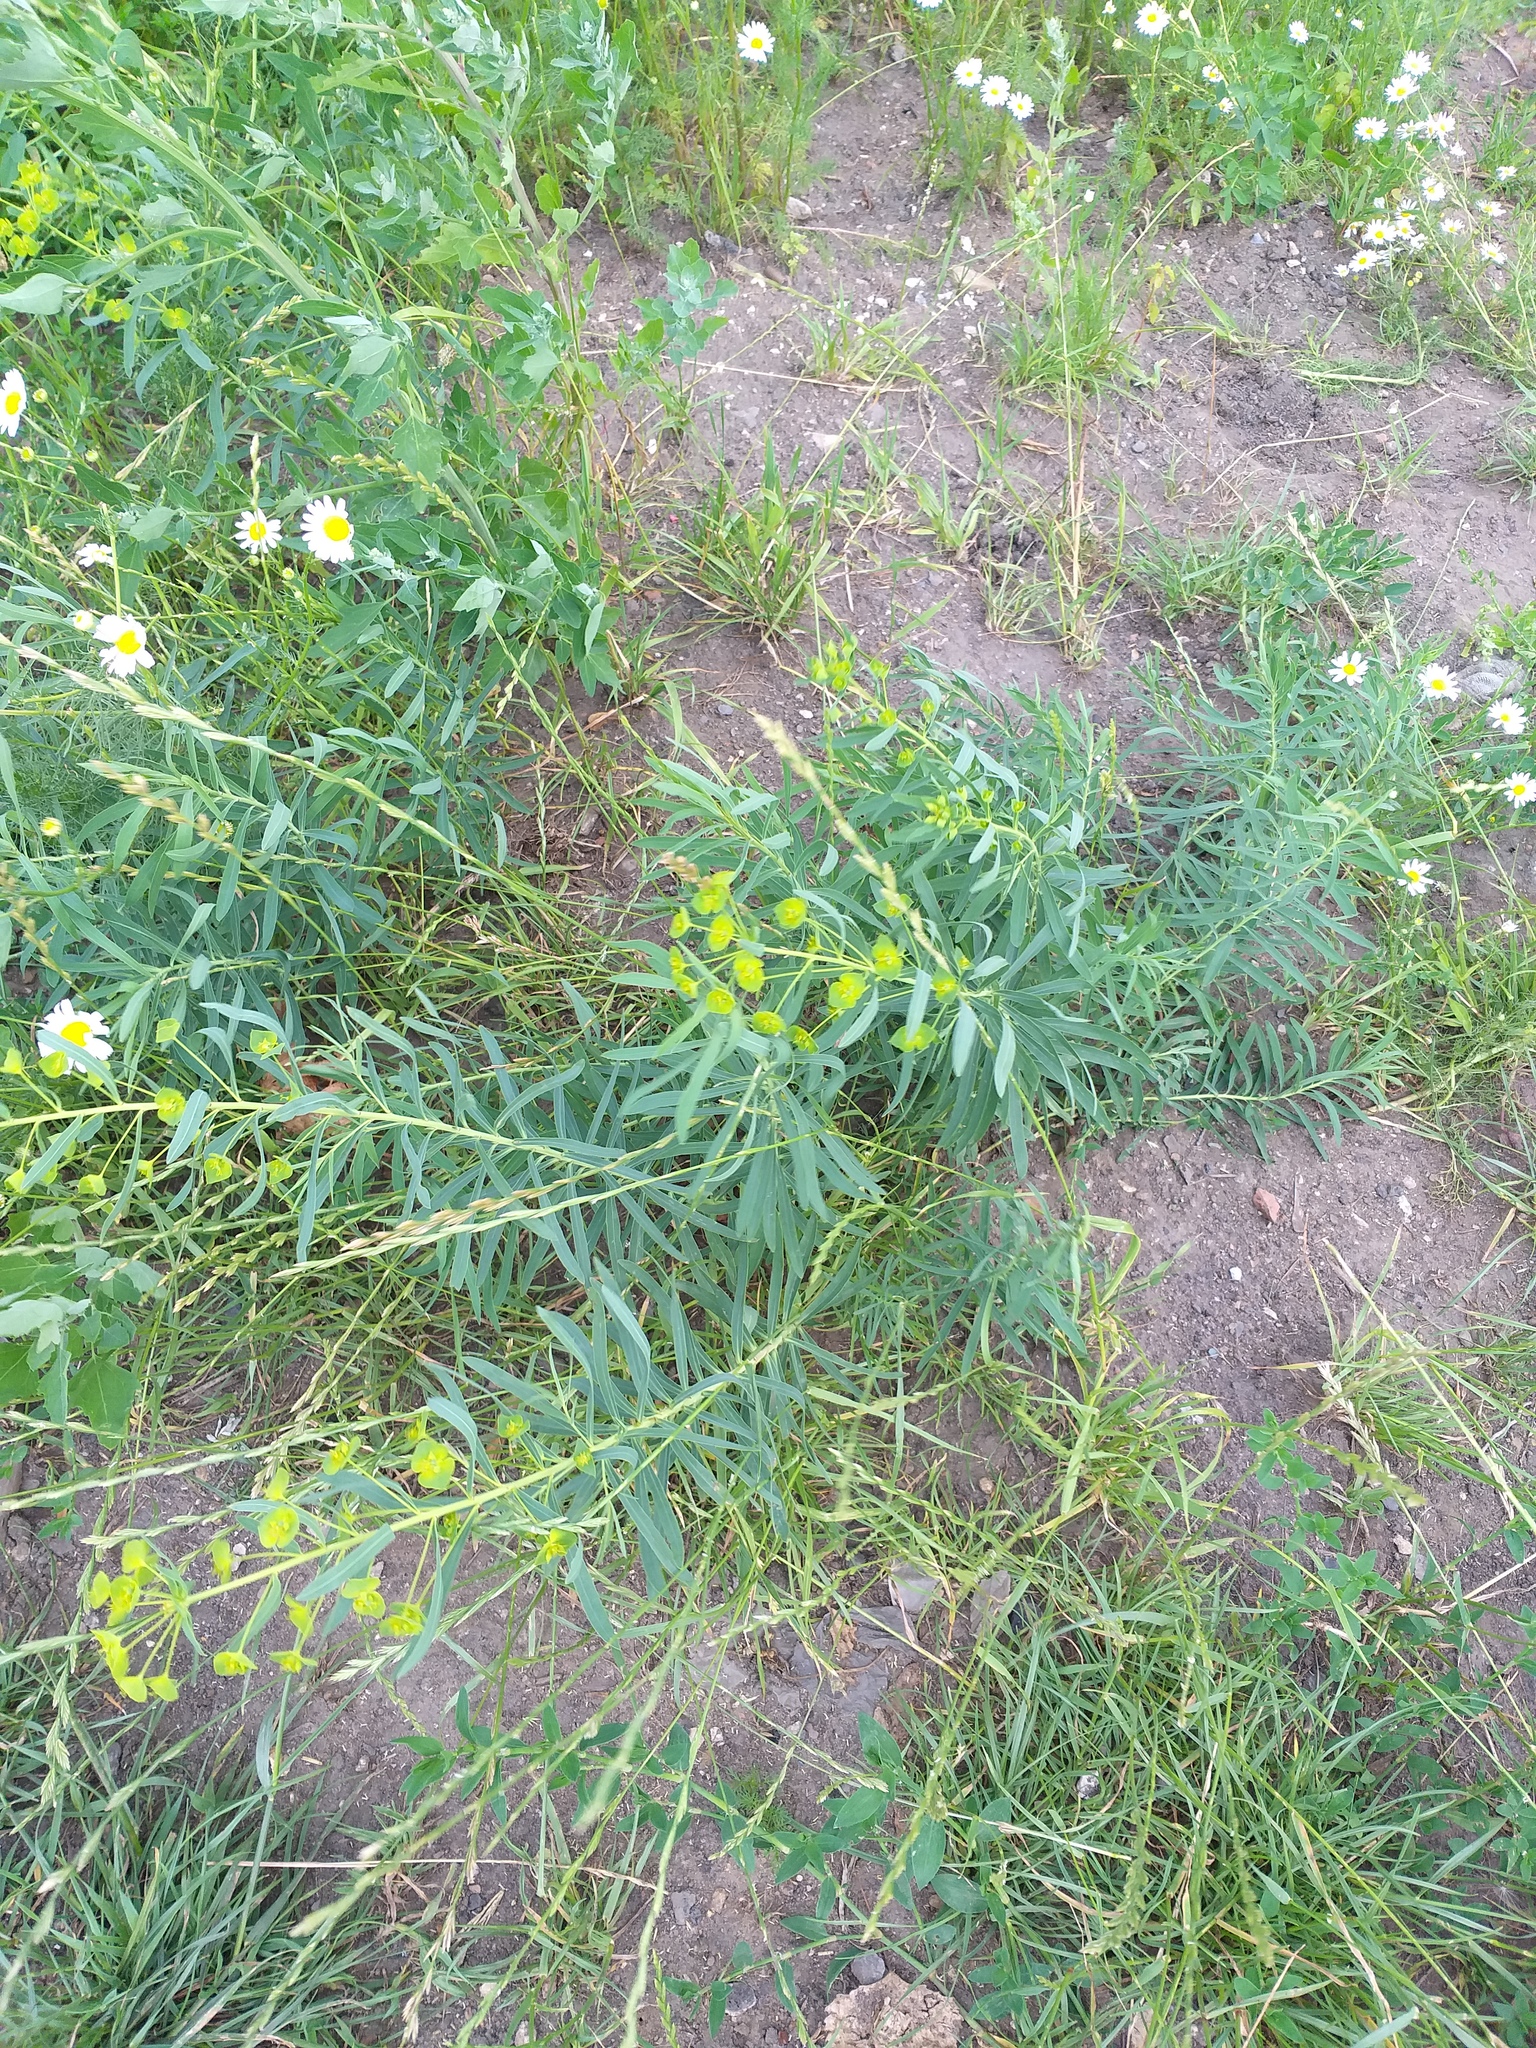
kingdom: Plantae
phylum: Tracheophyta
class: Magnoliopsida
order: Malpighiales
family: Euphorbiaceae
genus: Euphorbia
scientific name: Euphorbia virgata
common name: Leafy spurge
